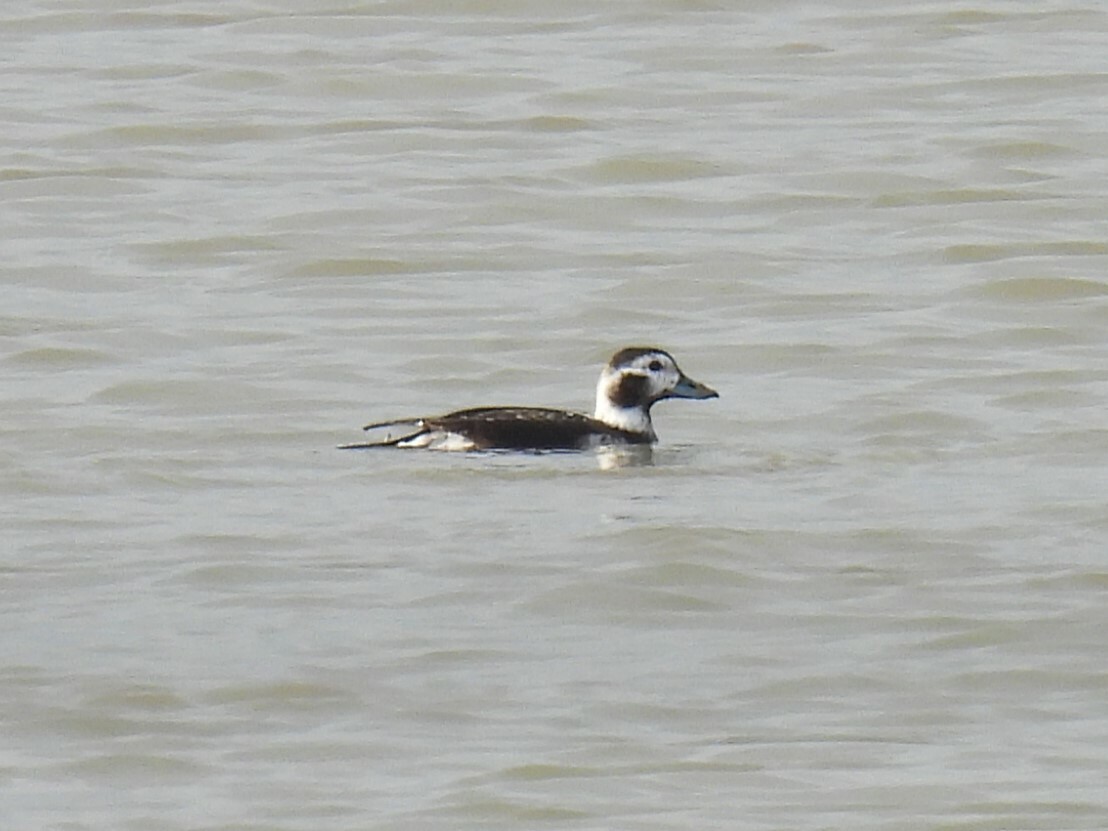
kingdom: Animalia
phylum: Chordata
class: Aves
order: Anseriformes
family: Anatidae
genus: Clangula
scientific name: Clangula hyemalis
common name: Long-tailed duck
